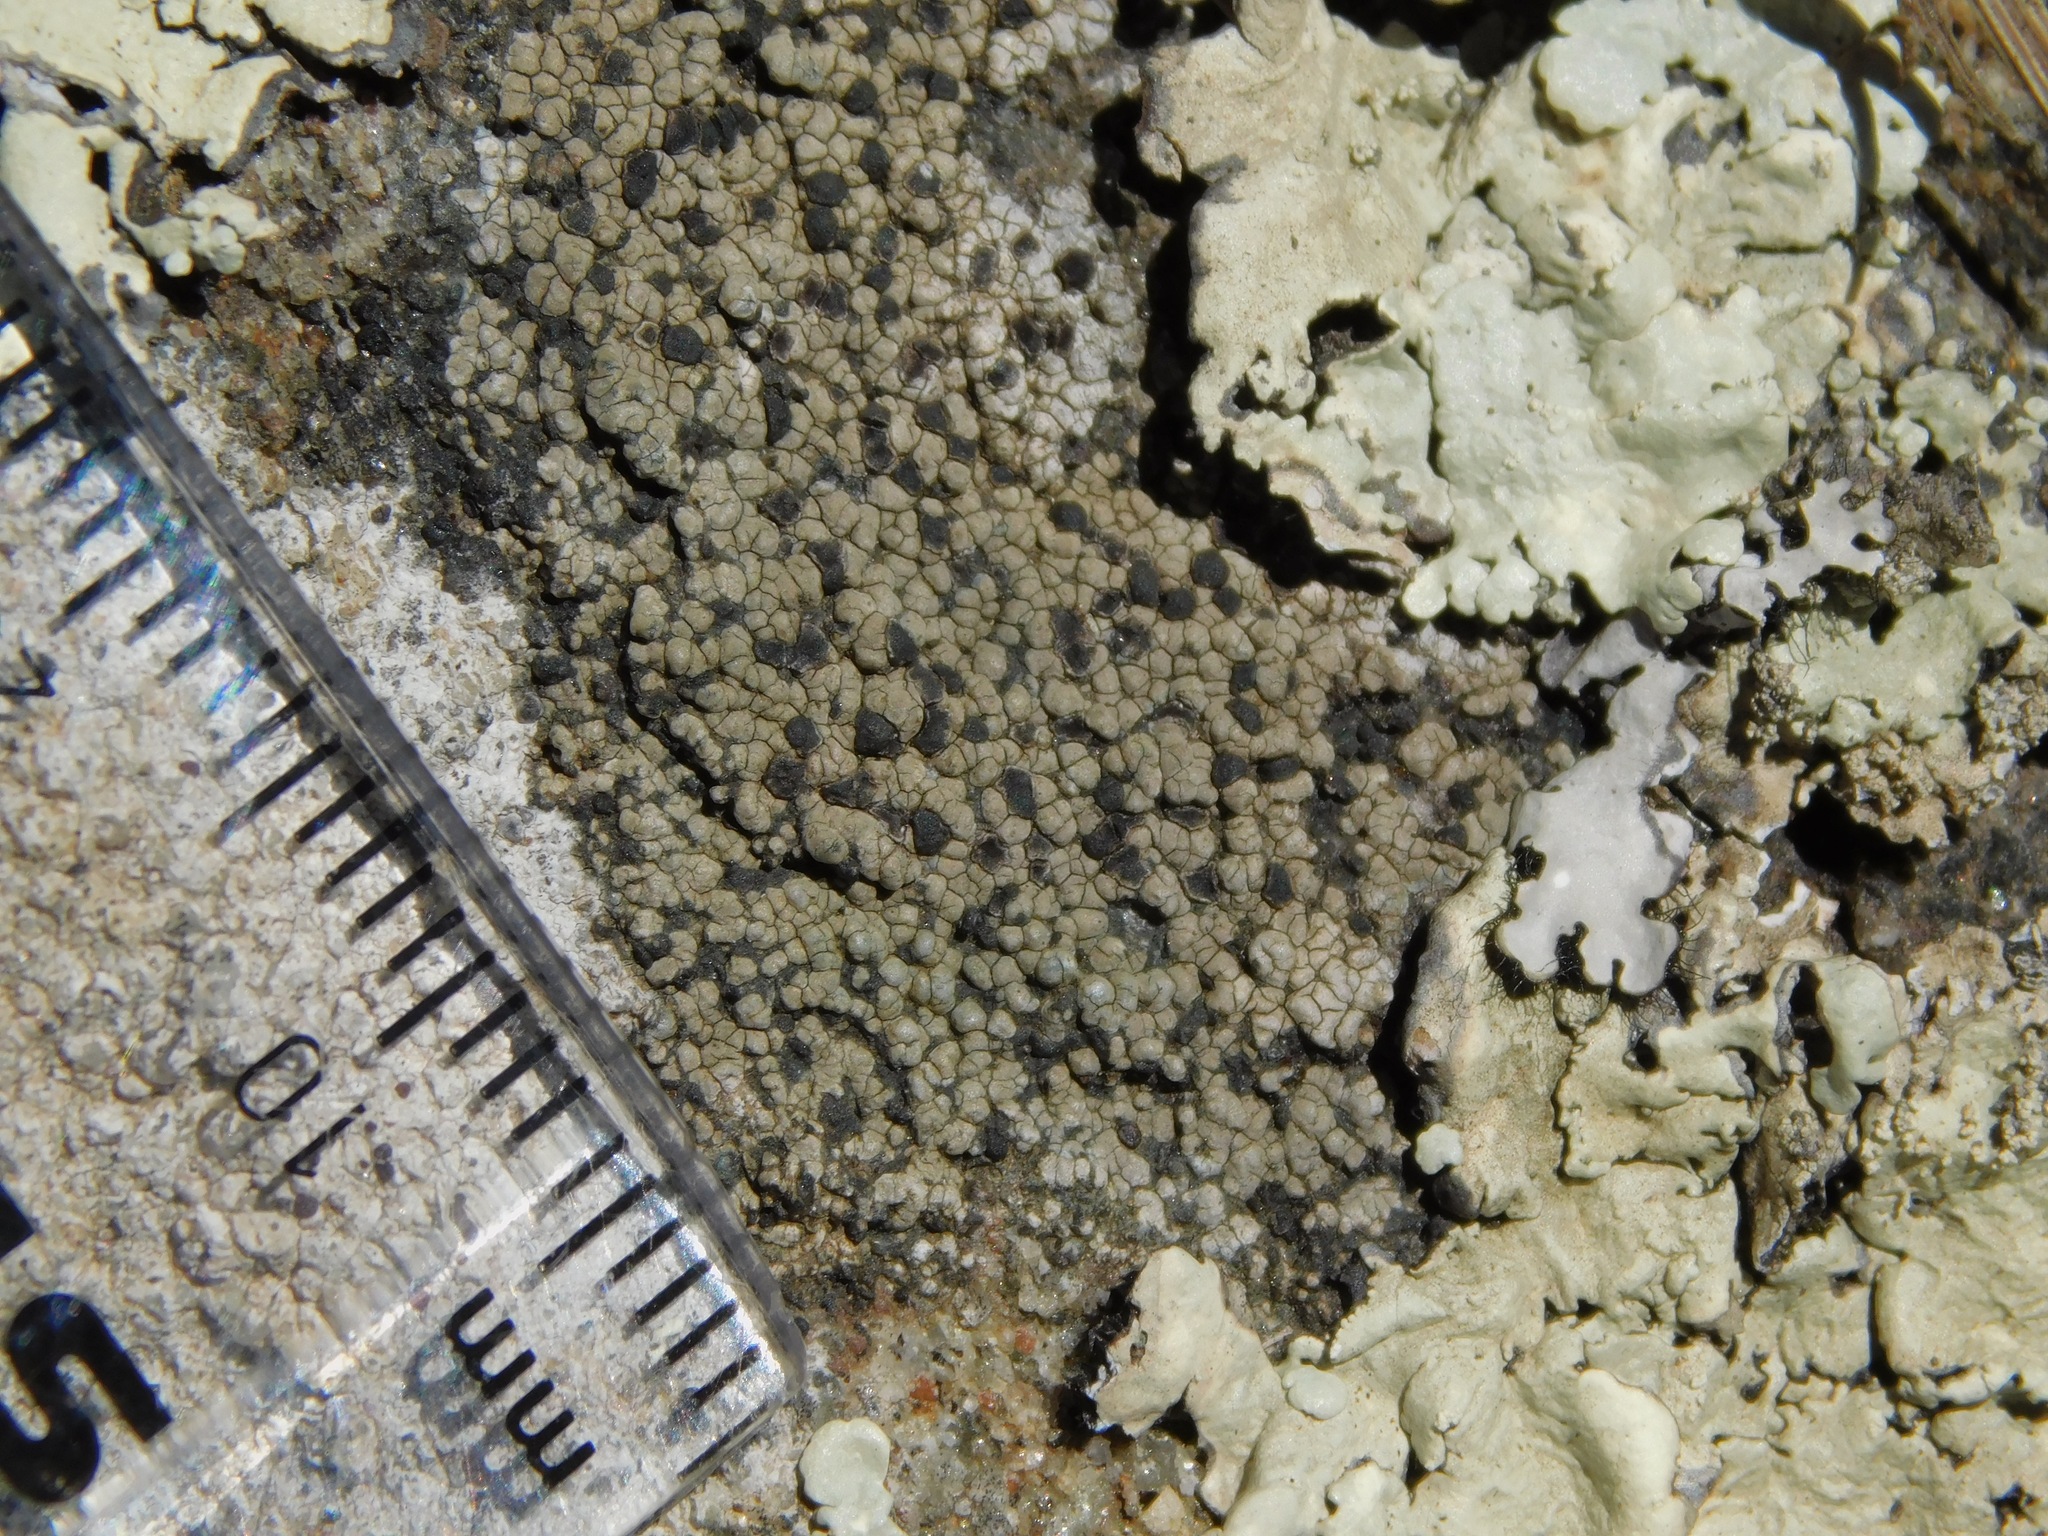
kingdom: Fungi
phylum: Ascomycota
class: Lecanoromycetes
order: Rhizocarpales
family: Rhizocarpaceae
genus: Rhizocarpon
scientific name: Rhizocarpon grande
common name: Big map lichen
